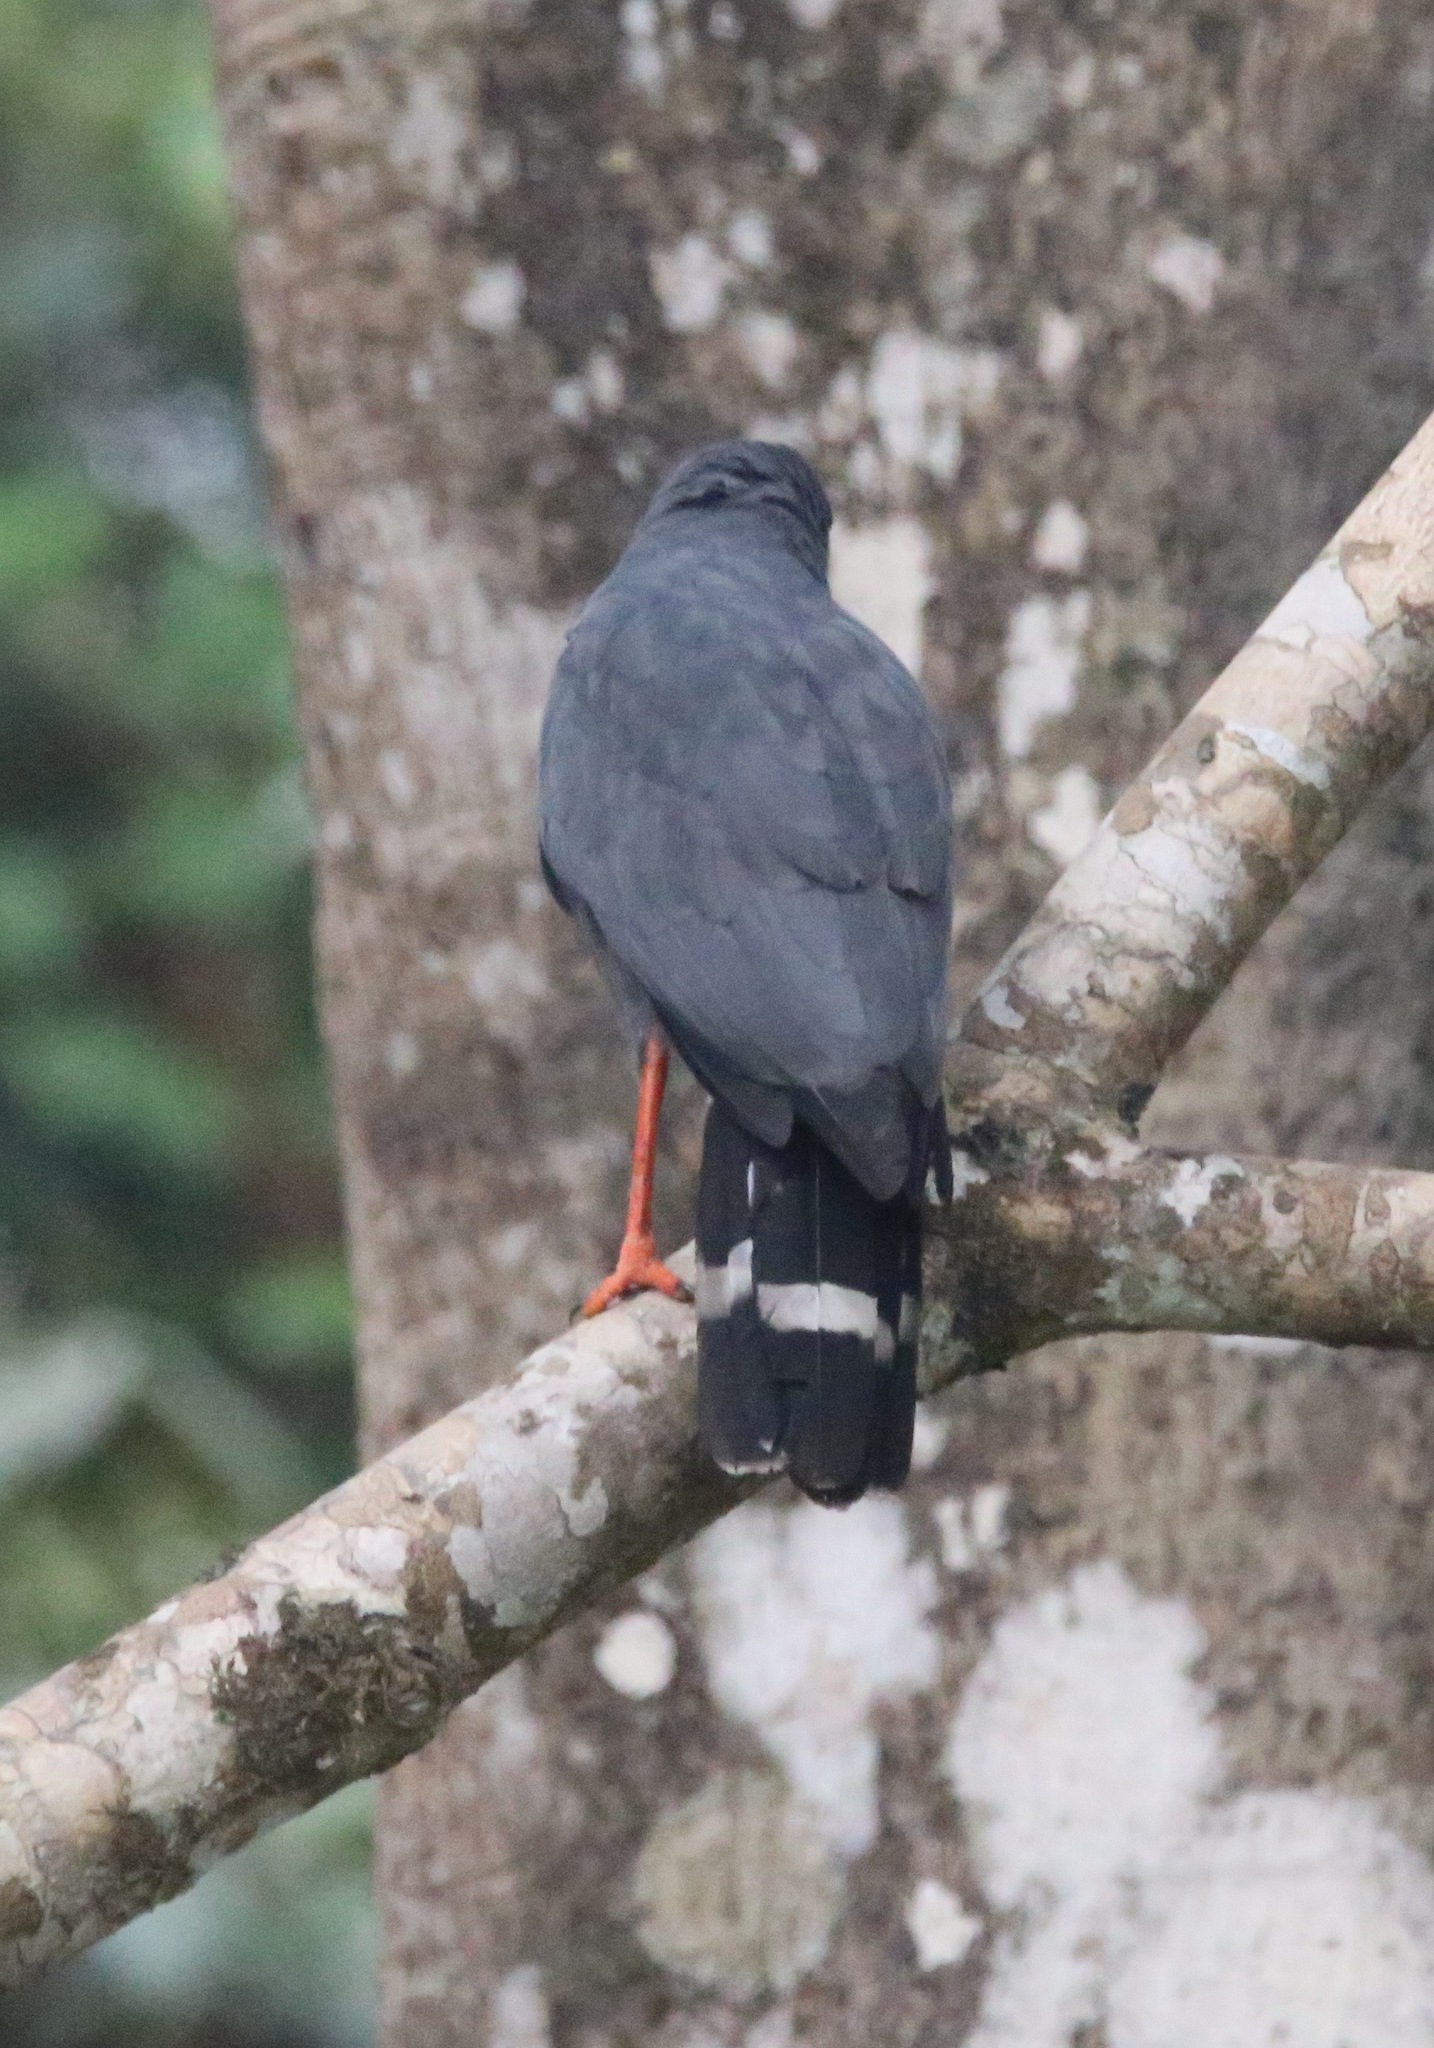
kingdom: Animalia
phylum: Chordata
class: Aves
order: Accipitriformes
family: Accipitridae
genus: Geranospiza
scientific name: Geranospiza caerulescens
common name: Crane hawk
